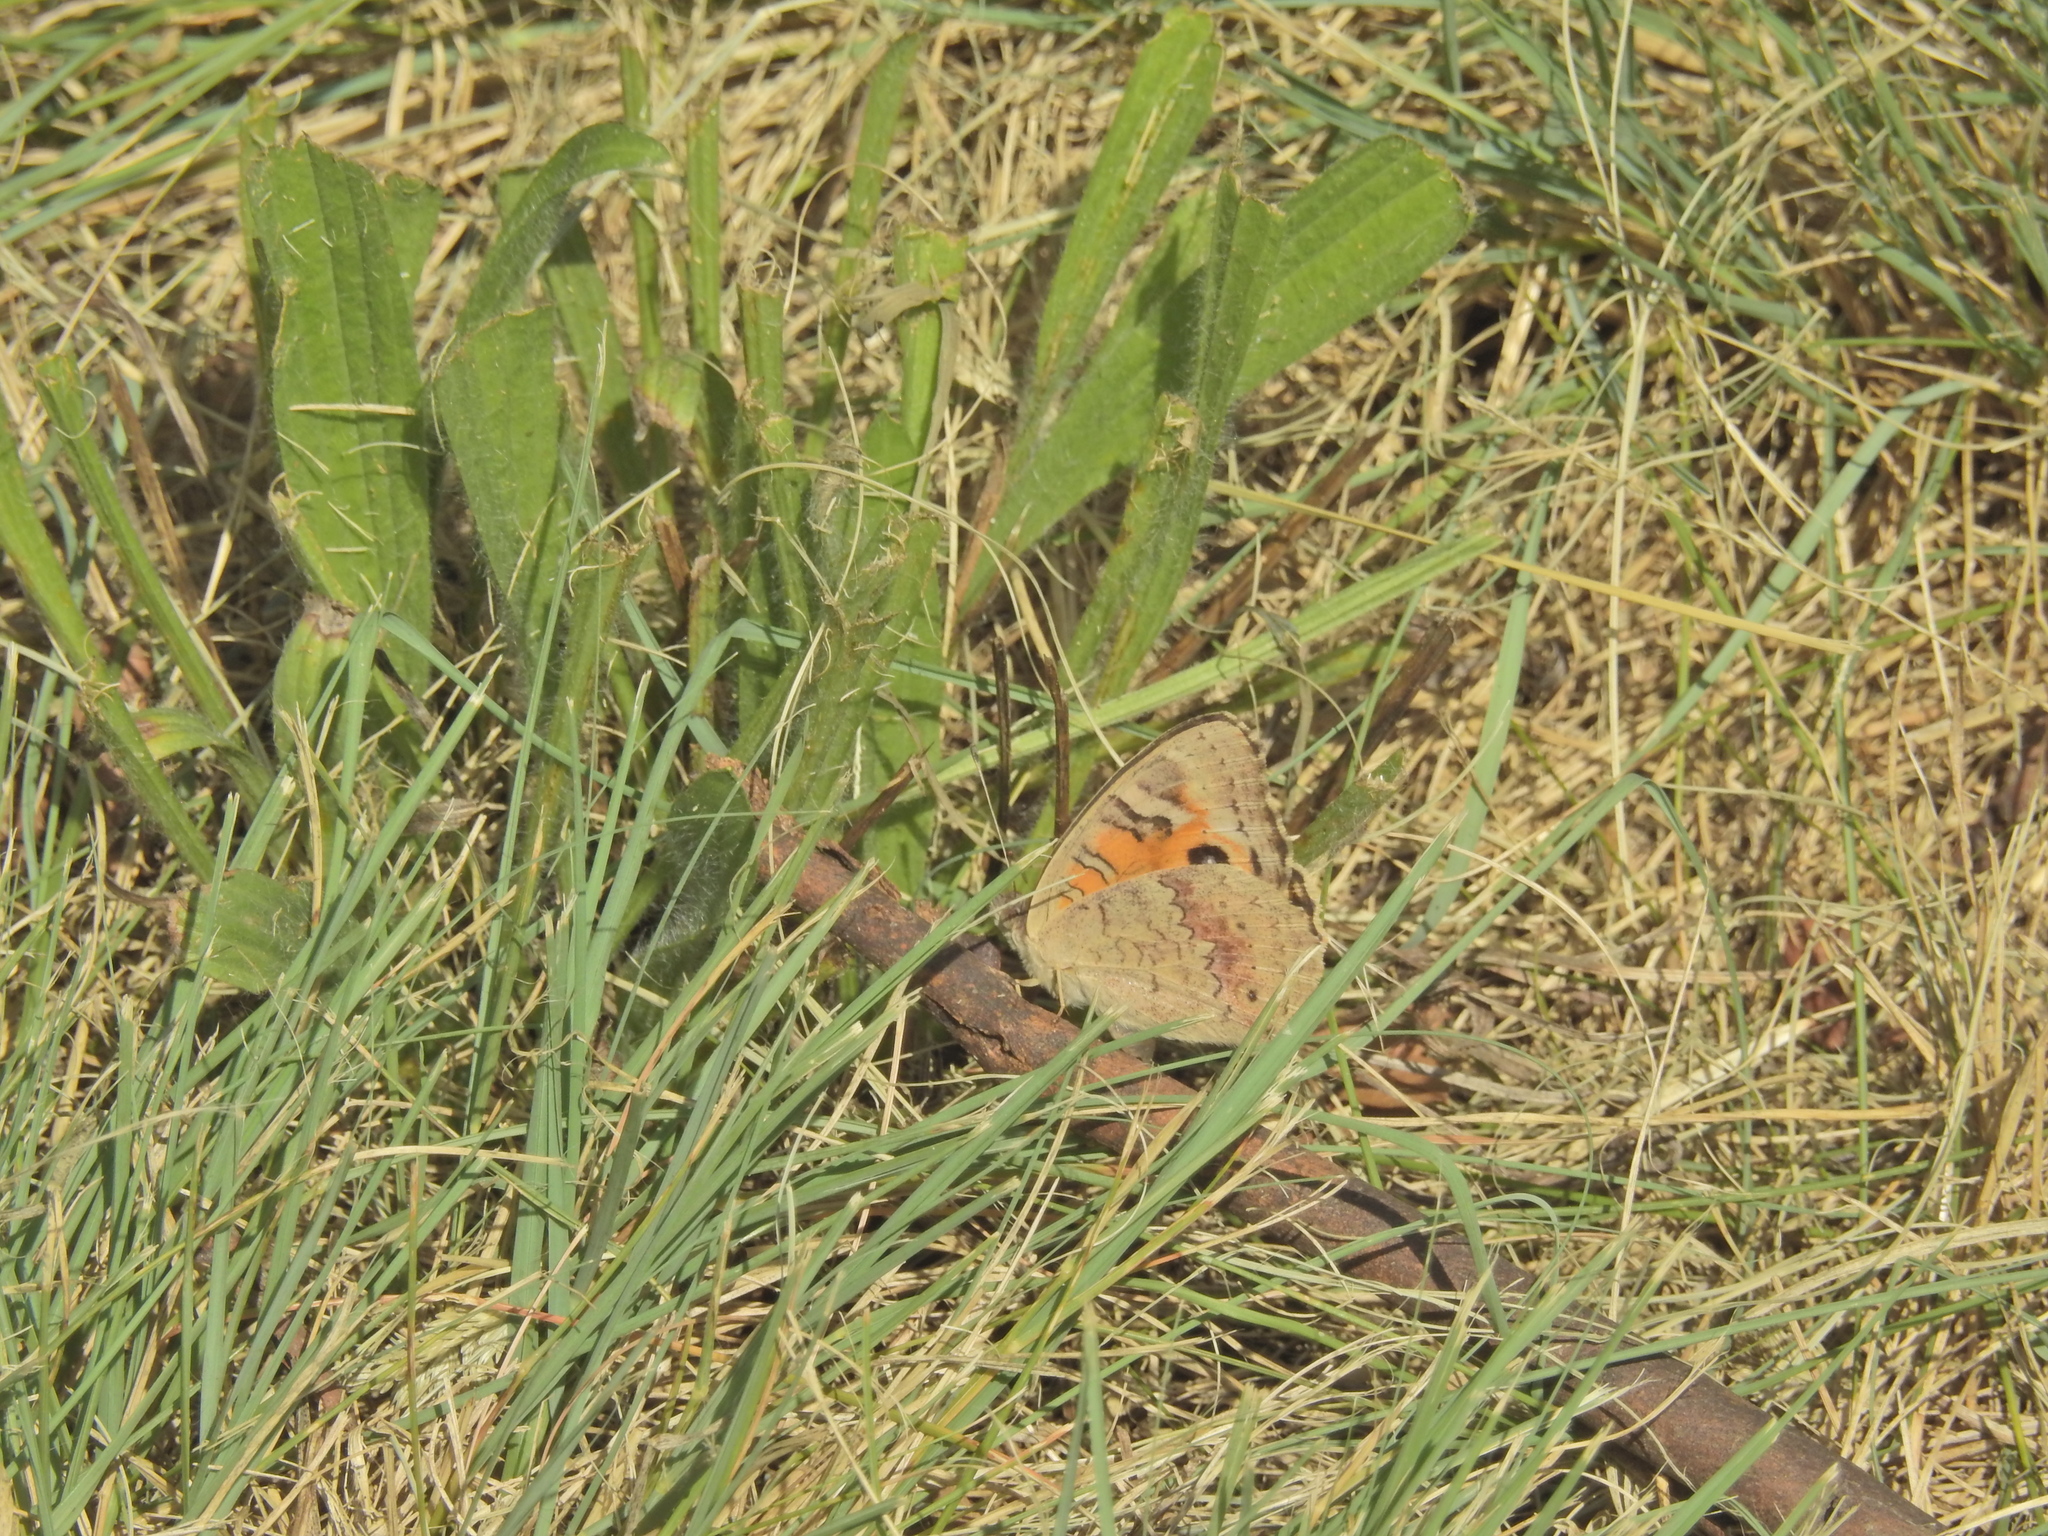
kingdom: Animalia
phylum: Arthropoda
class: Insecta
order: Lepidoptera
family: Nymphalidae
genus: Junonia
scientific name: Junonia villida
